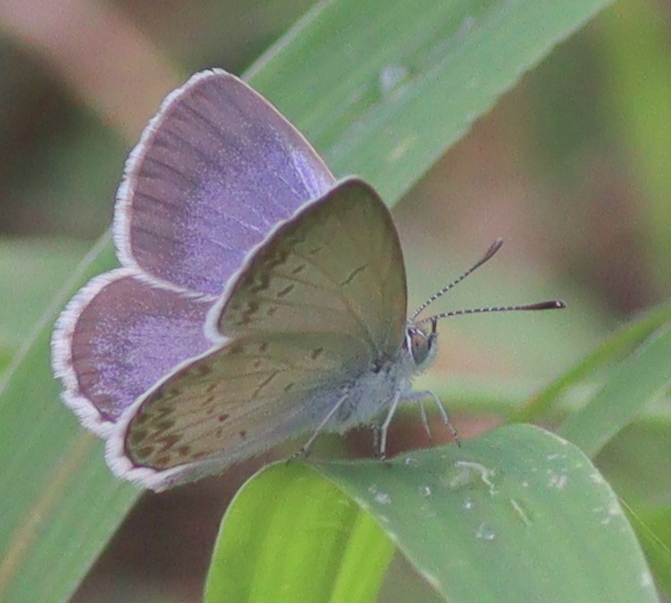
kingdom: Animalia
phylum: Arthropoda
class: Insecta
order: Lepidoptera
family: Lycaenidae
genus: Zizina
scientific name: Zizina otis
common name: Lesser grass blue
